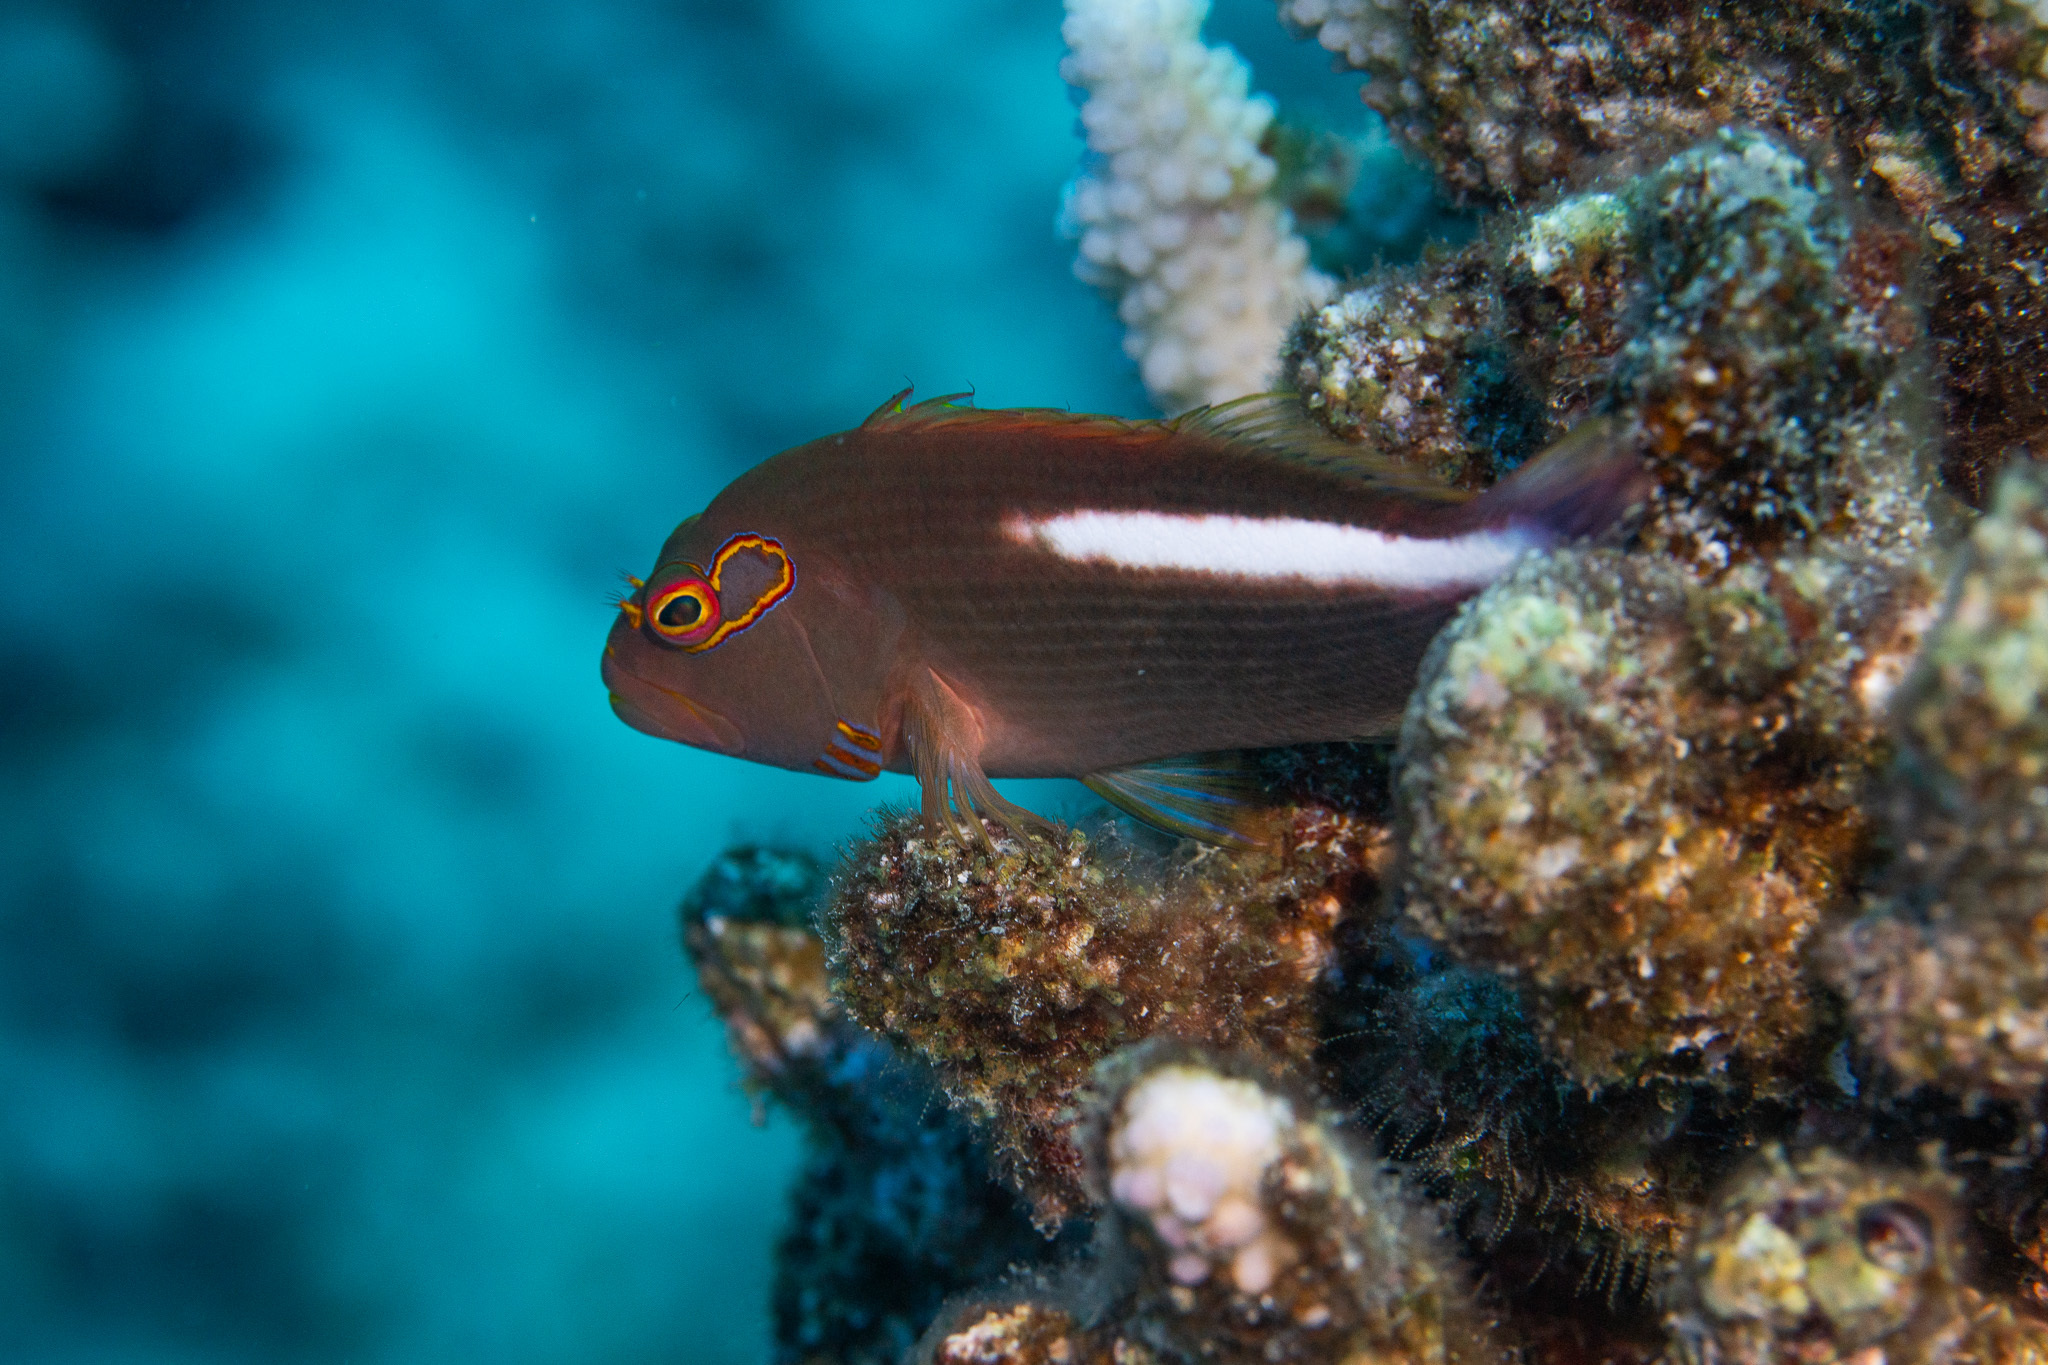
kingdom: Animalia
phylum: Chordata
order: Perciformes
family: Cirrhitidae
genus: Paracirrhites
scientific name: Paracirrhites arcatus
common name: Arc-eye hawkfish
